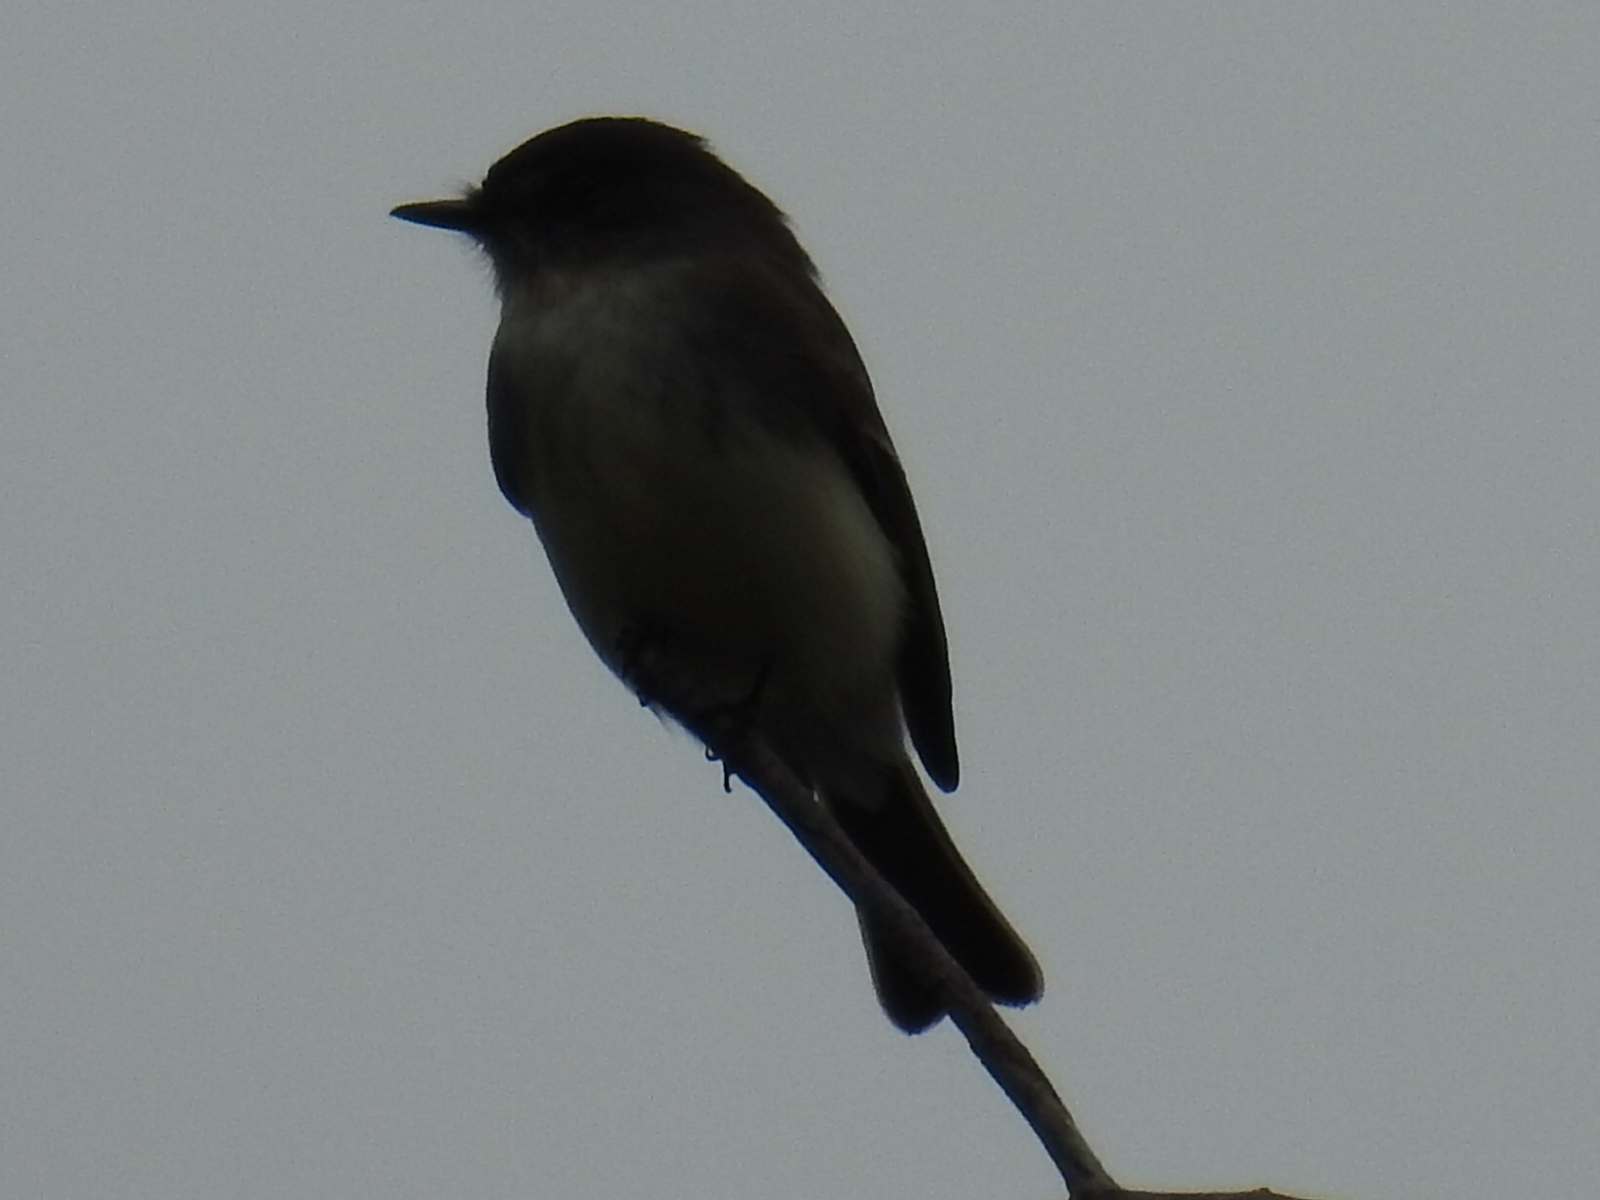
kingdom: Animalia
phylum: Chordata
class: Aves
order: Passeriformes
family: Tyrannidae
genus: Sayornis
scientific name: Sayornis phoebe
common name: Eastern phoebe
